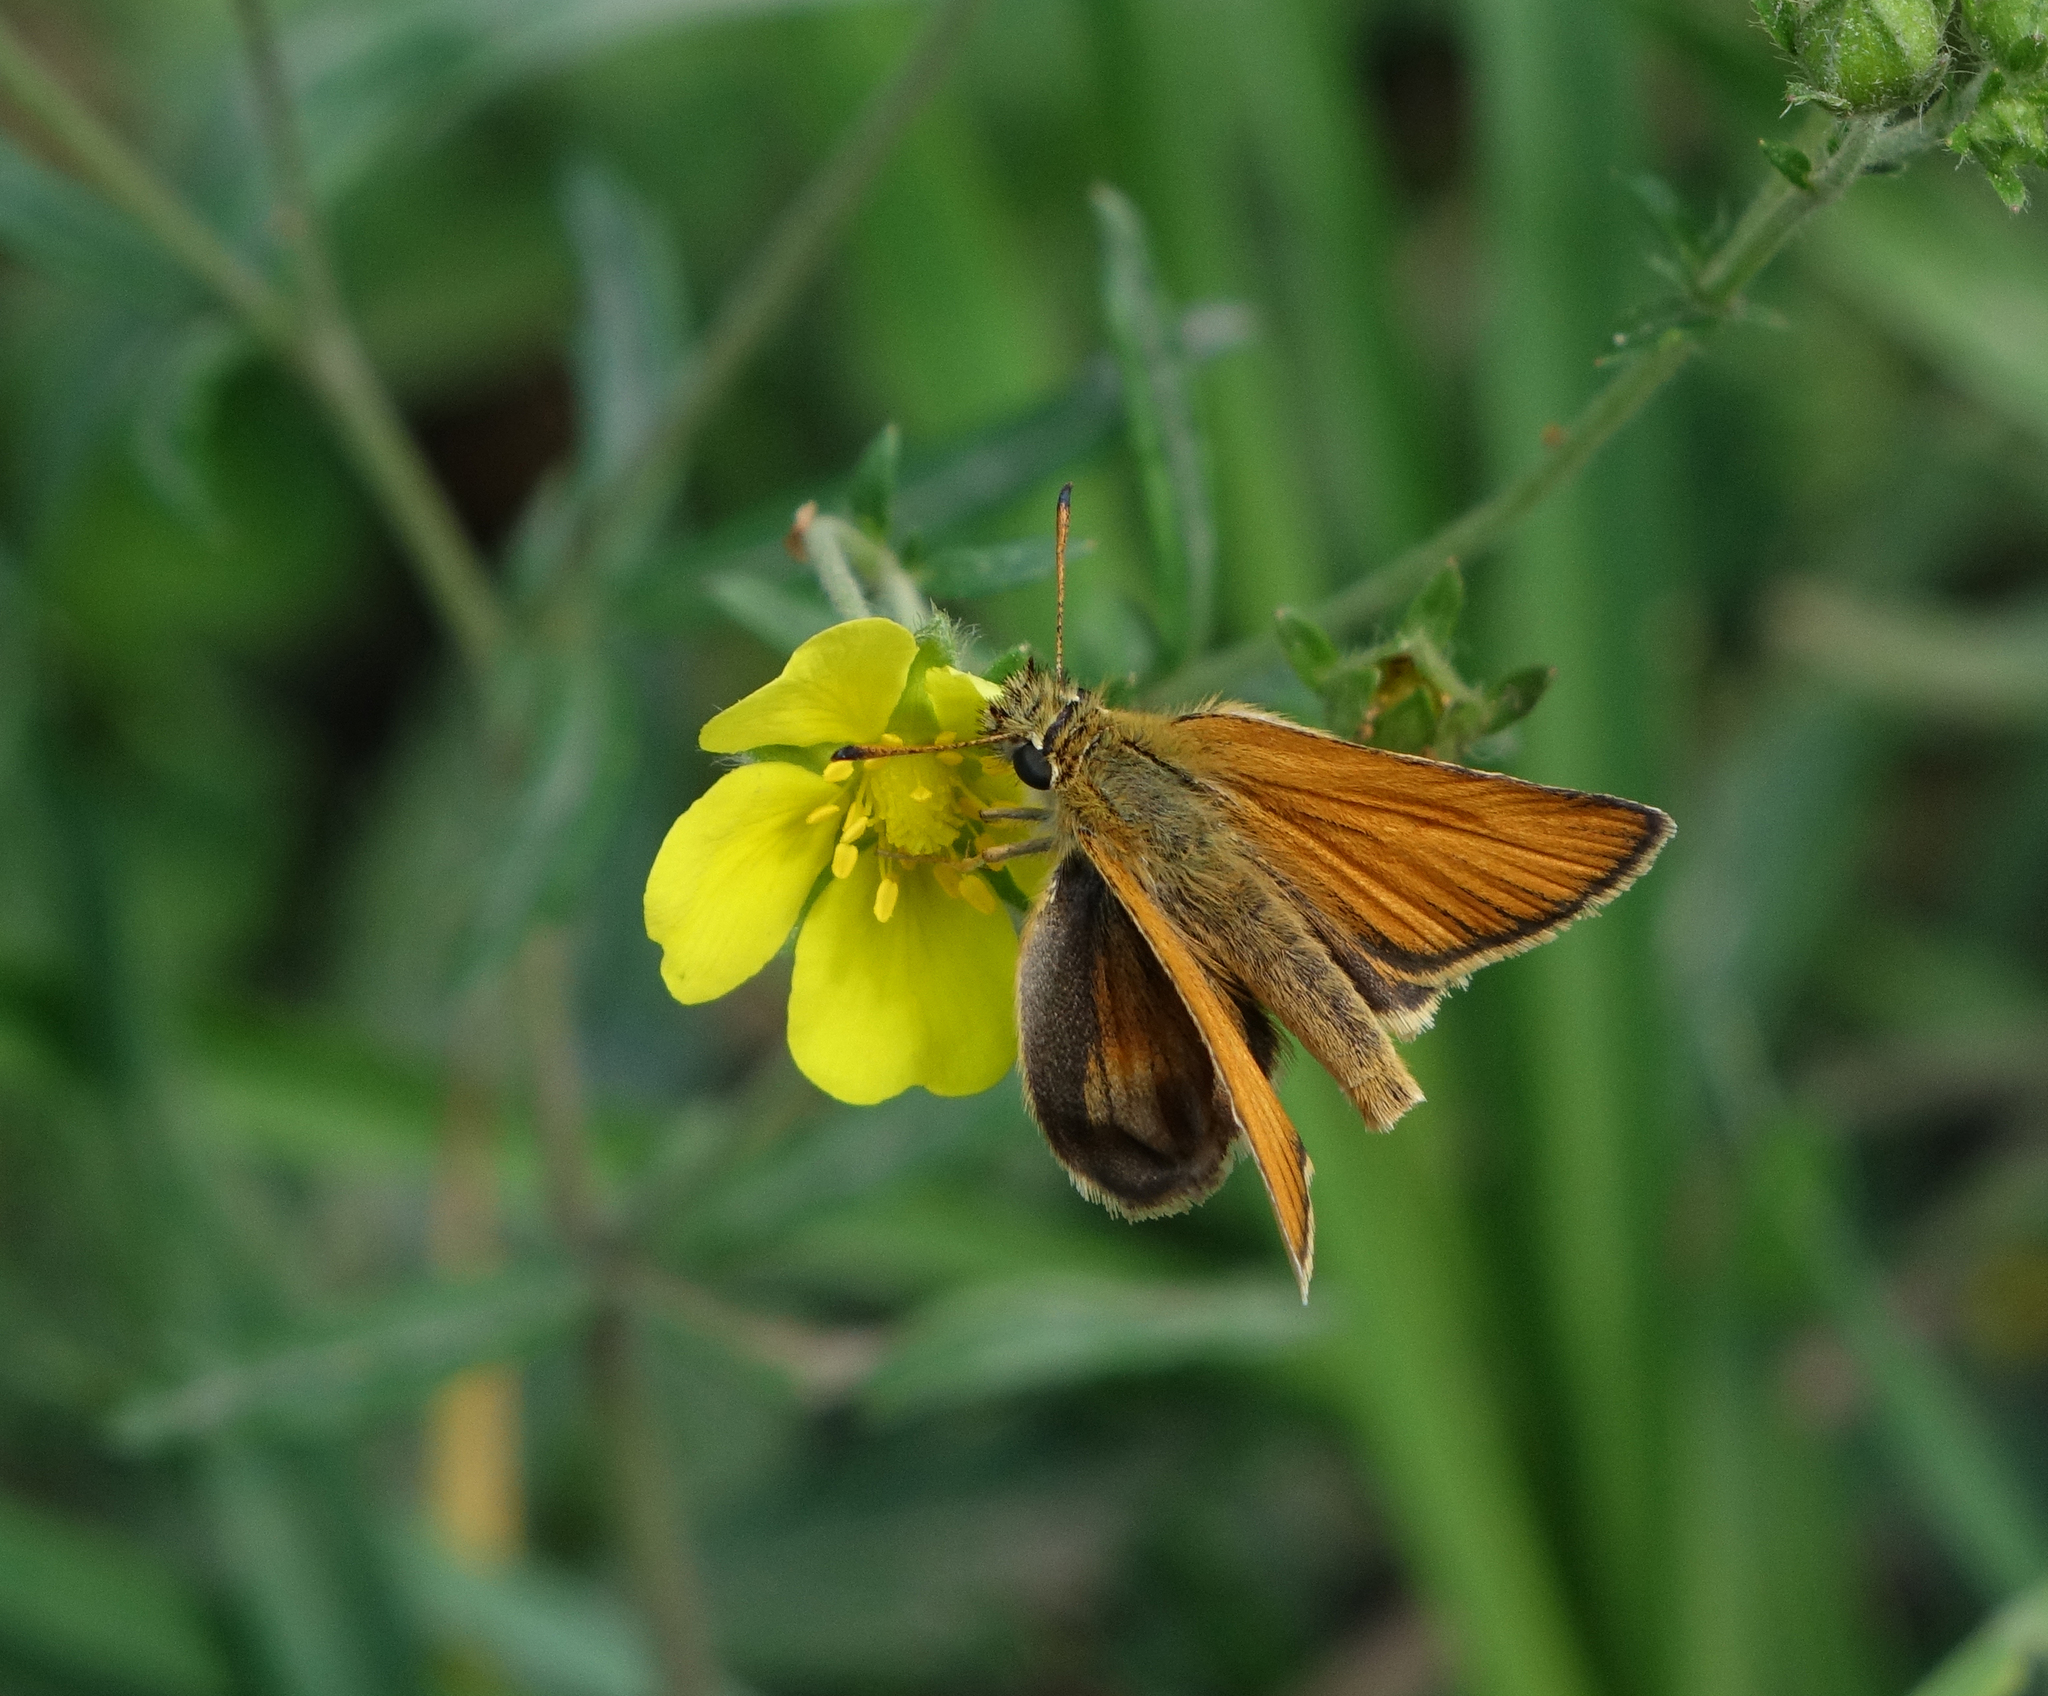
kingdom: Animalia
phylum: Arthropoda
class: Insecta
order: Lepidoptera
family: Hesperiidae
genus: Thymelicus
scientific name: Thymelicus lineola
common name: Essex skipper
